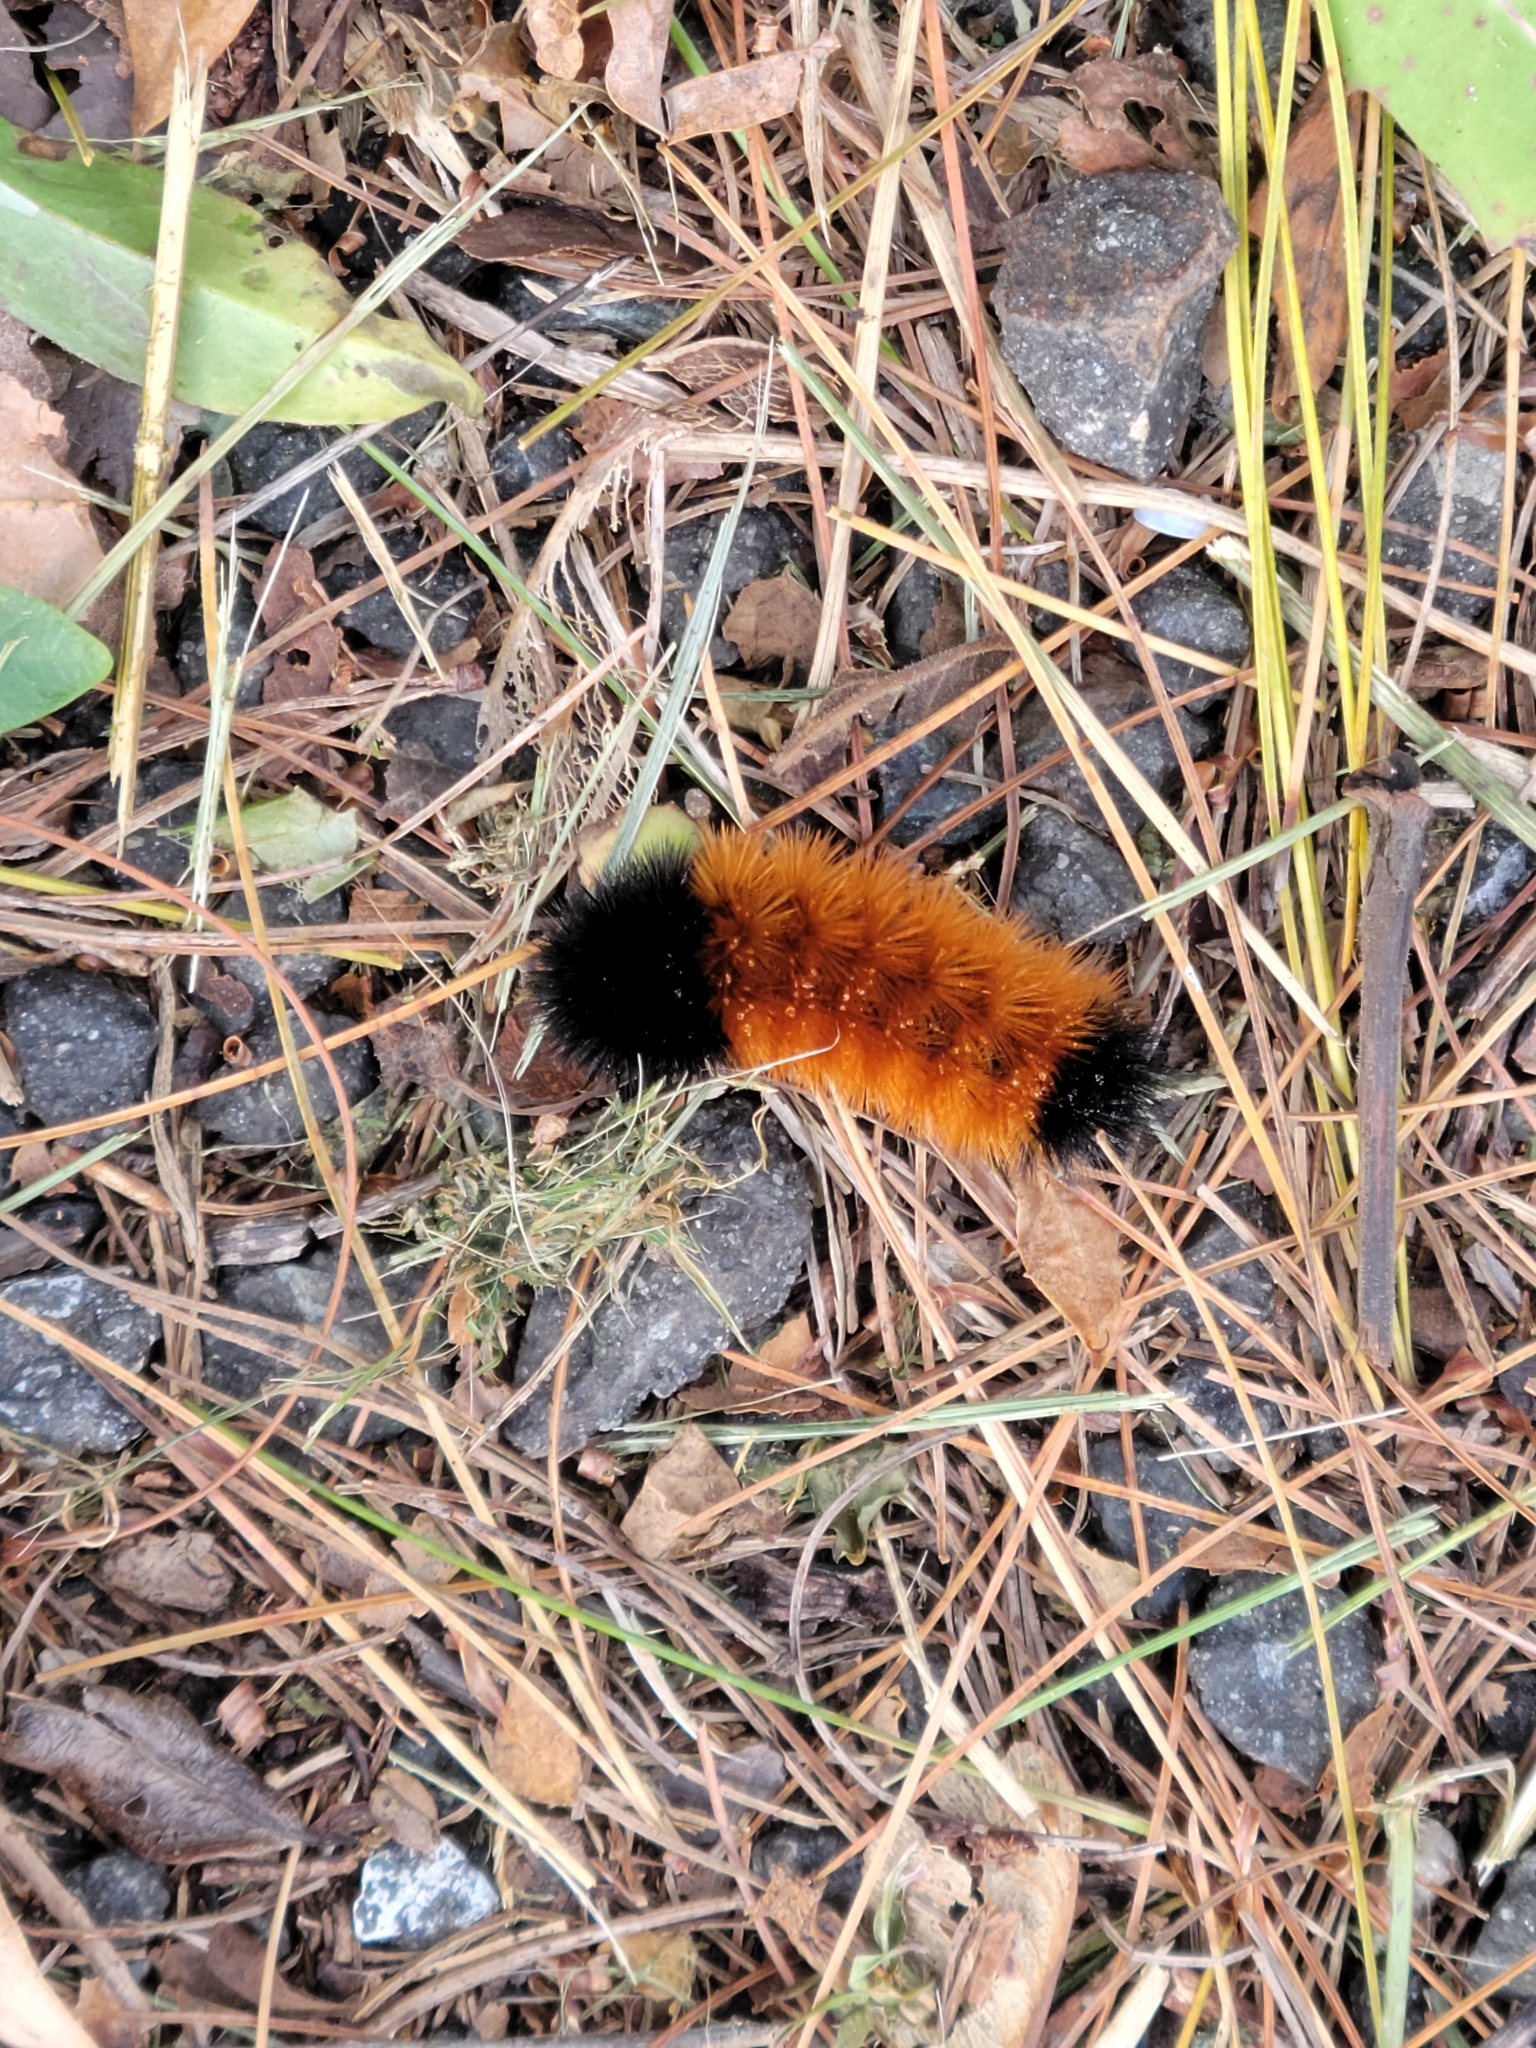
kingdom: Animalia
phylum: Arthropoda
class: Insecta
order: Lepidoptera
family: Erebidae
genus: Pyrrharctia
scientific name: Pyrrharctia isabella
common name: Isabella tiger moth
